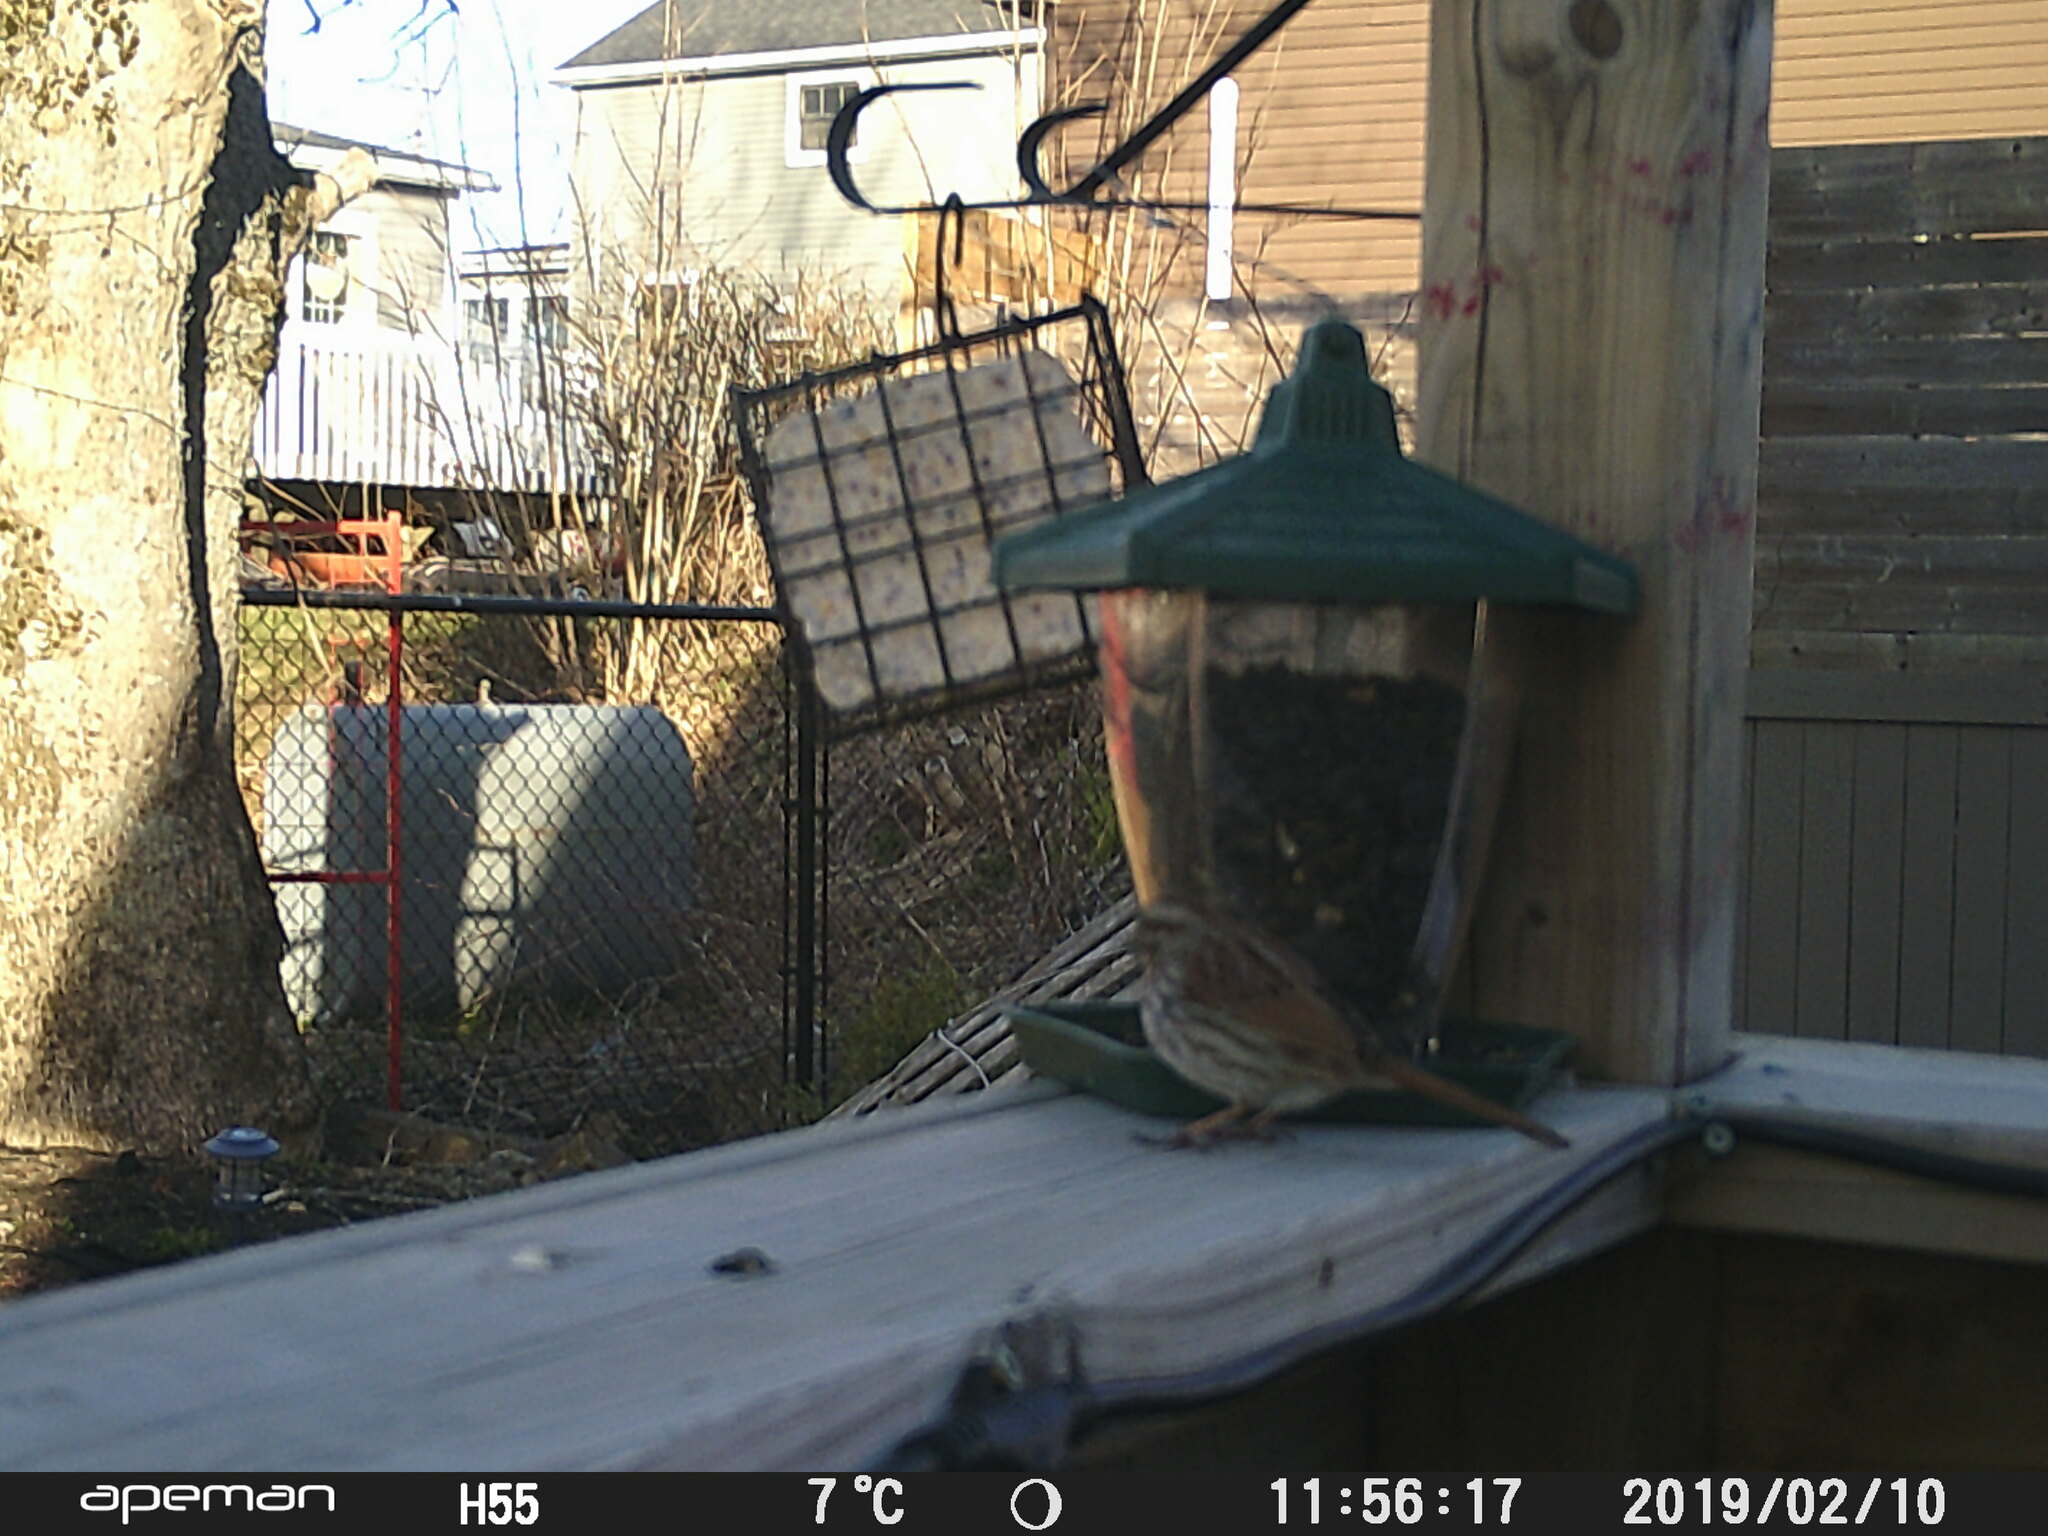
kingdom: Animalia
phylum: Chordata
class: Aves
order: Passeriformes
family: Passerellidae
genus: Melospiza
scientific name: Melospiza melodia
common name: Song sparrow
